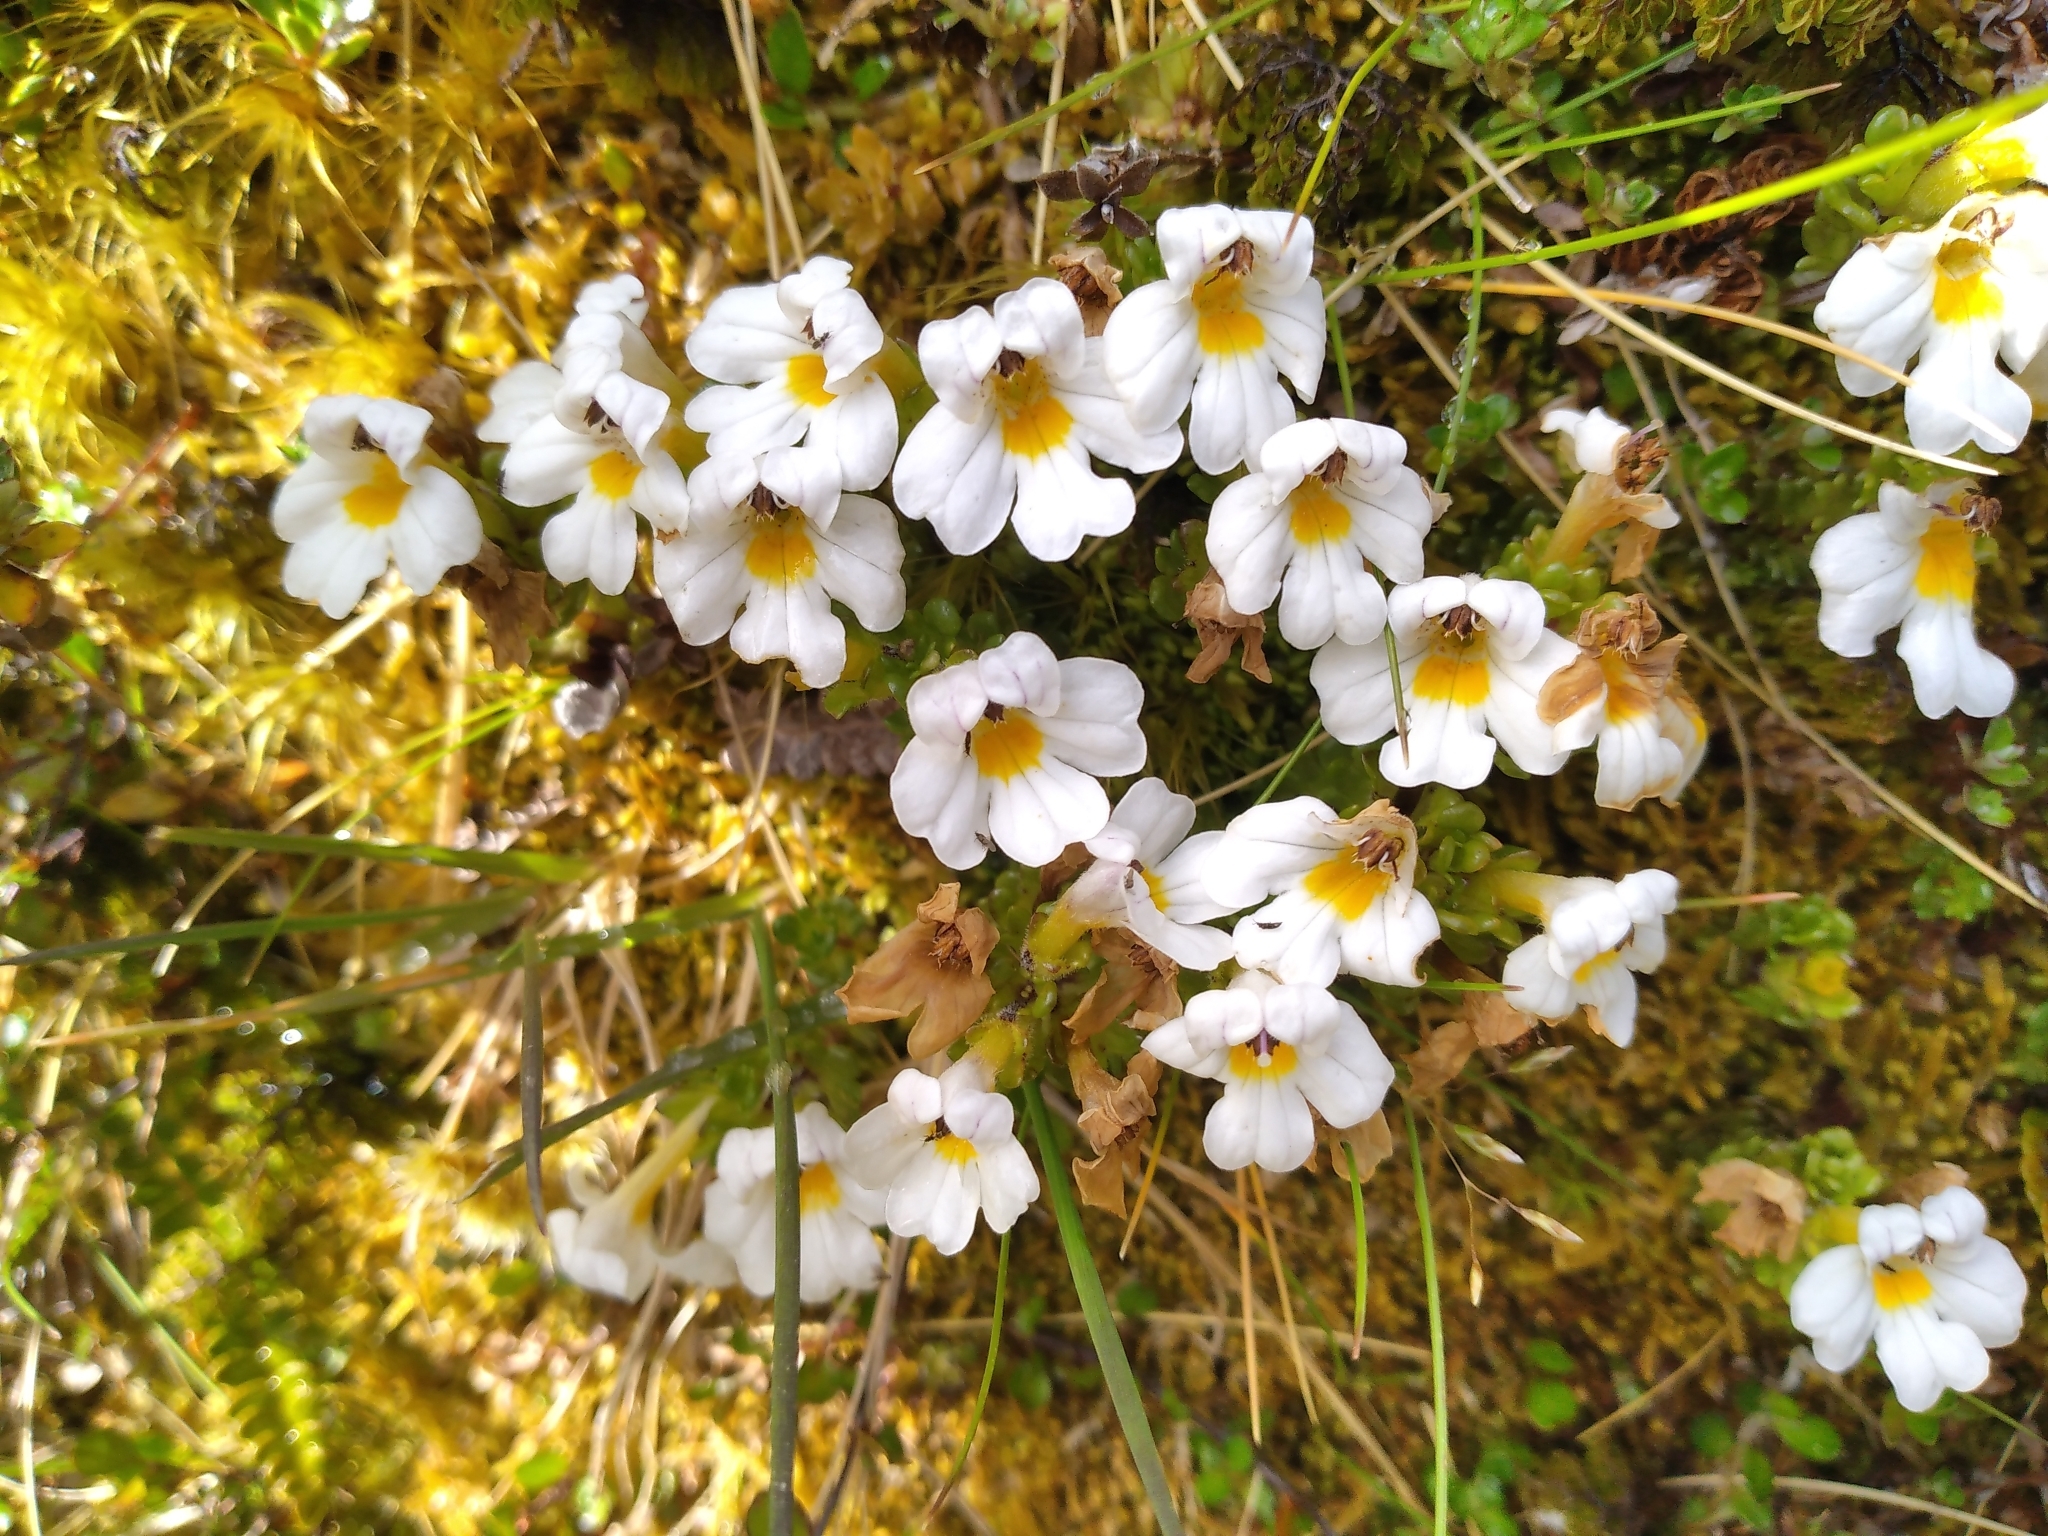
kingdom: Plantae
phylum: Tracheophyta
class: Magnoliopsida
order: Lamiales
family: Orobanchaceae
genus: Euphrasia
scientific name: Euphrasia petriei
